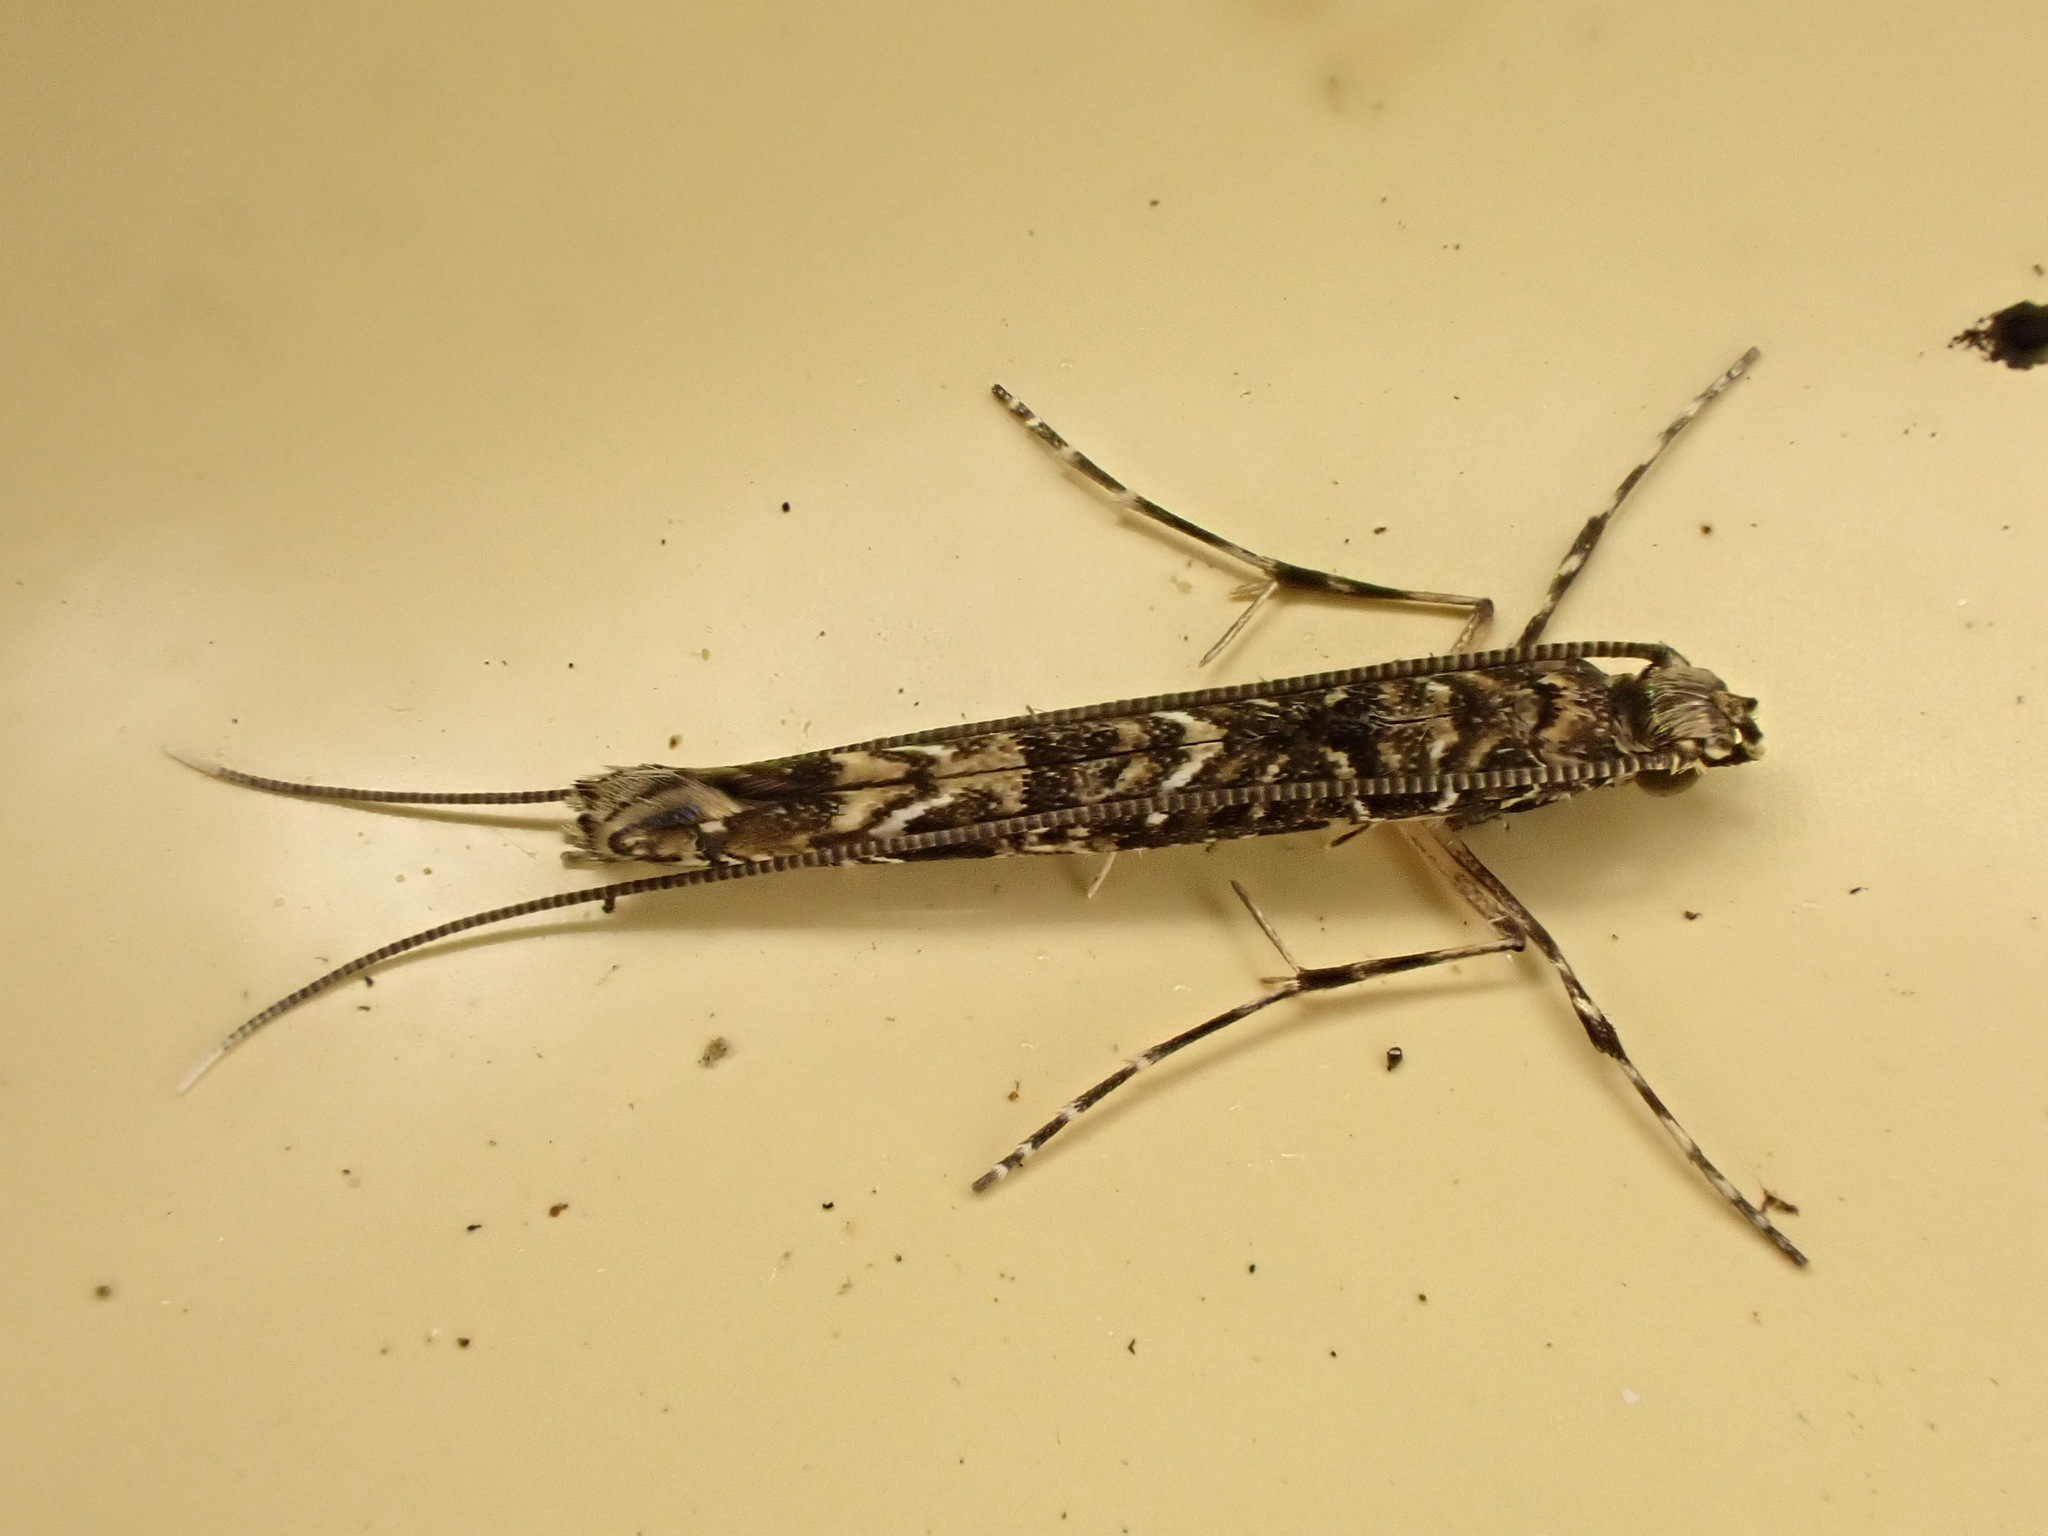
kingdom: Animalia
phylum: Arthropoda
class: Insecta
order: Lepidoptera
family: Gracillariidae
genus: Conopomorpha
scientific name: Conopomorpha cyanospila
